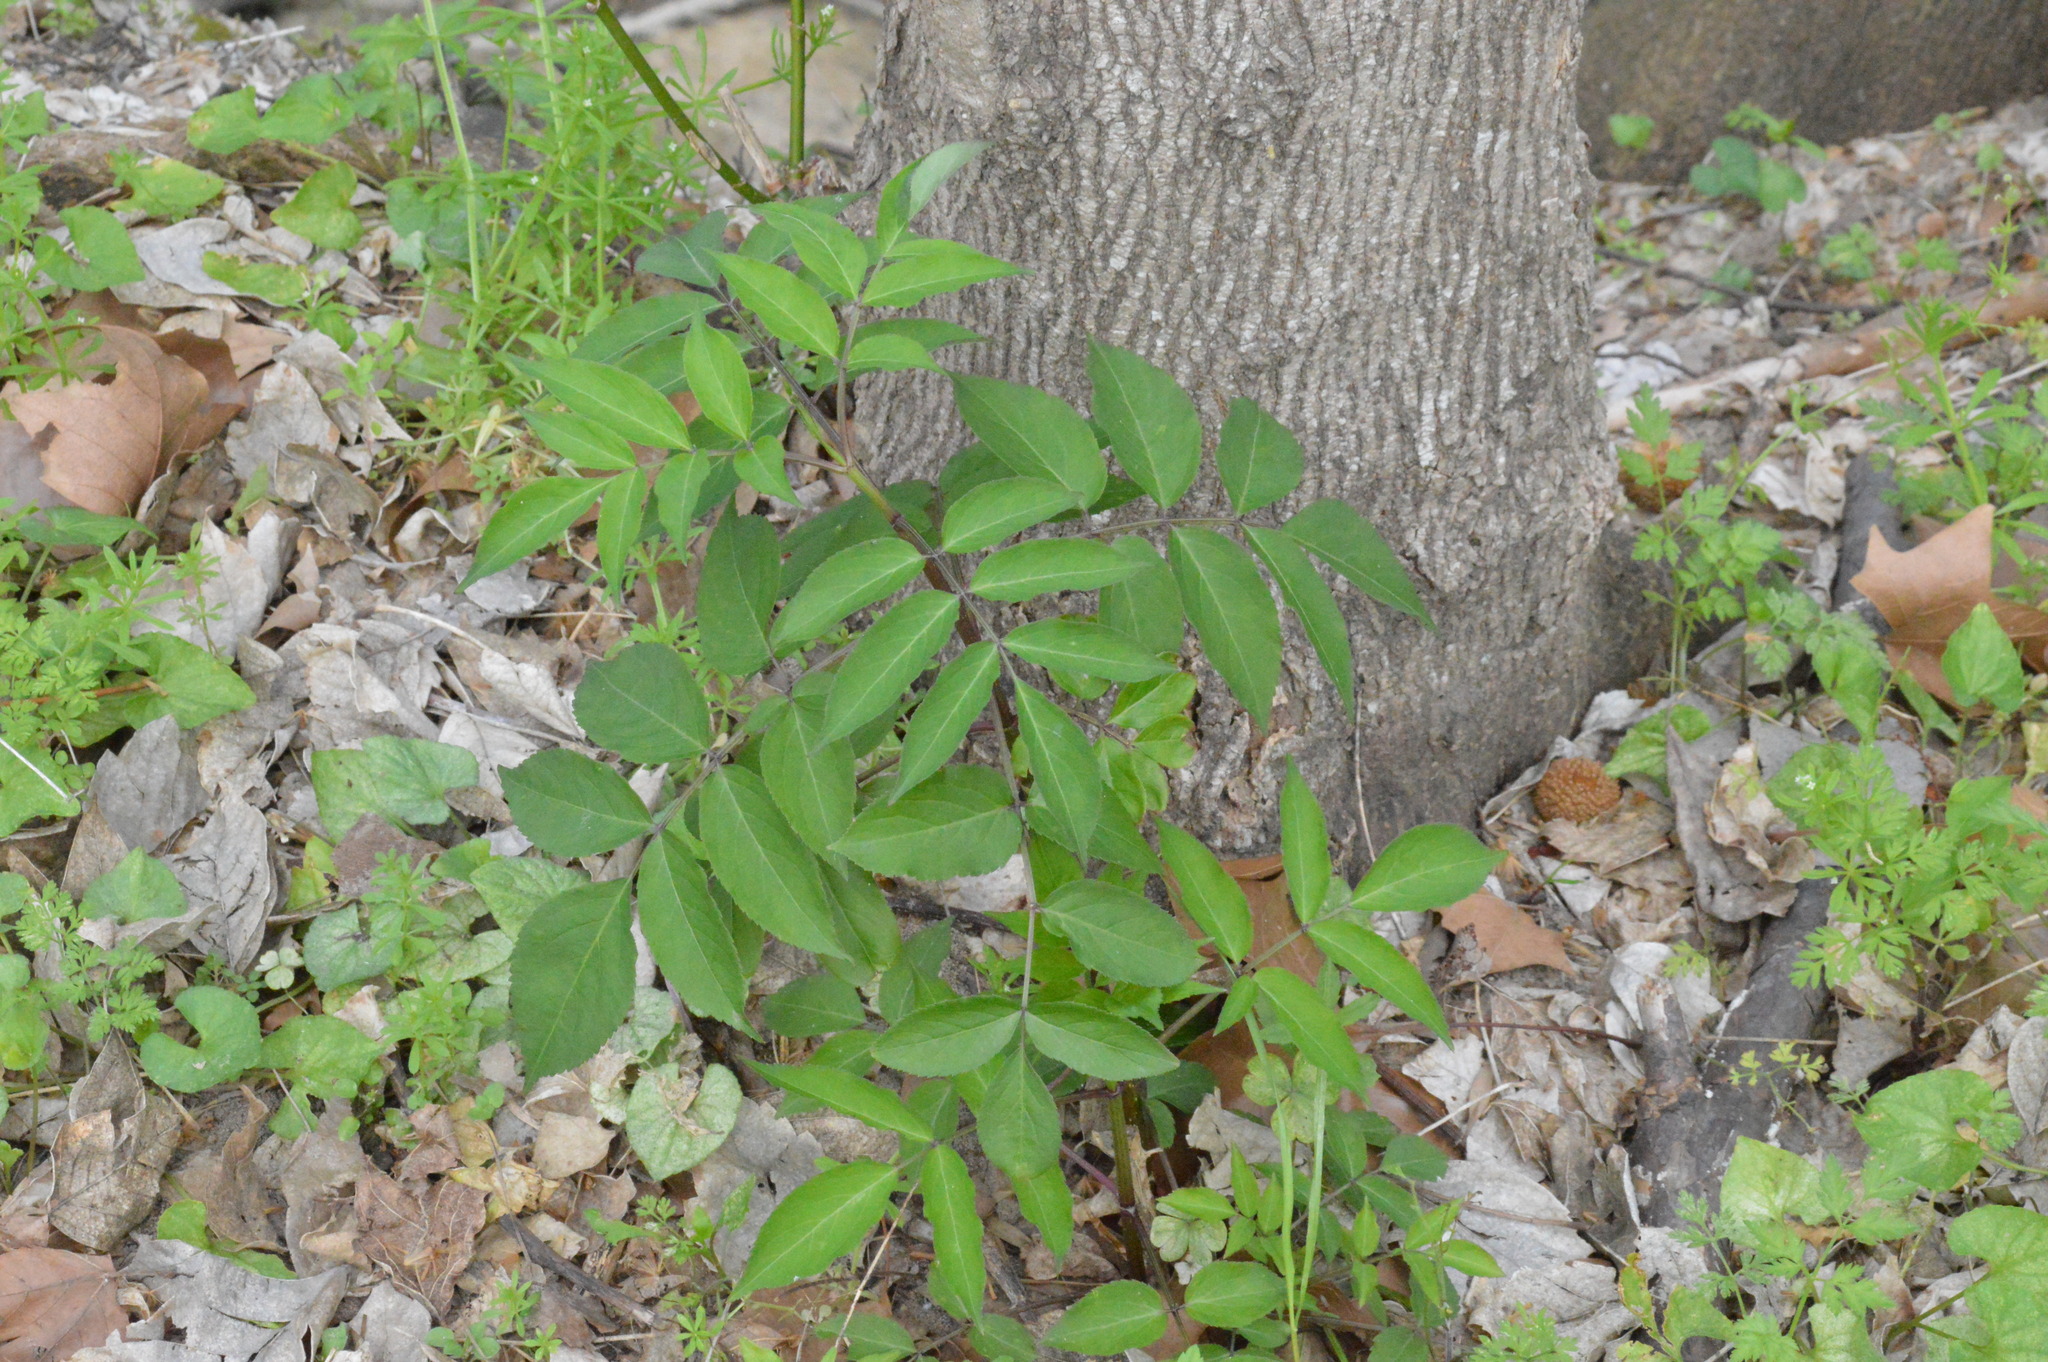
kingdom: Plantae
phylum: Tracheophyta
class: Magnoliopsida
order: Dipsacales
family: Viburnaceae
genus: Sambucus
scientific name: Sambucus canadensis
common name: American elder
